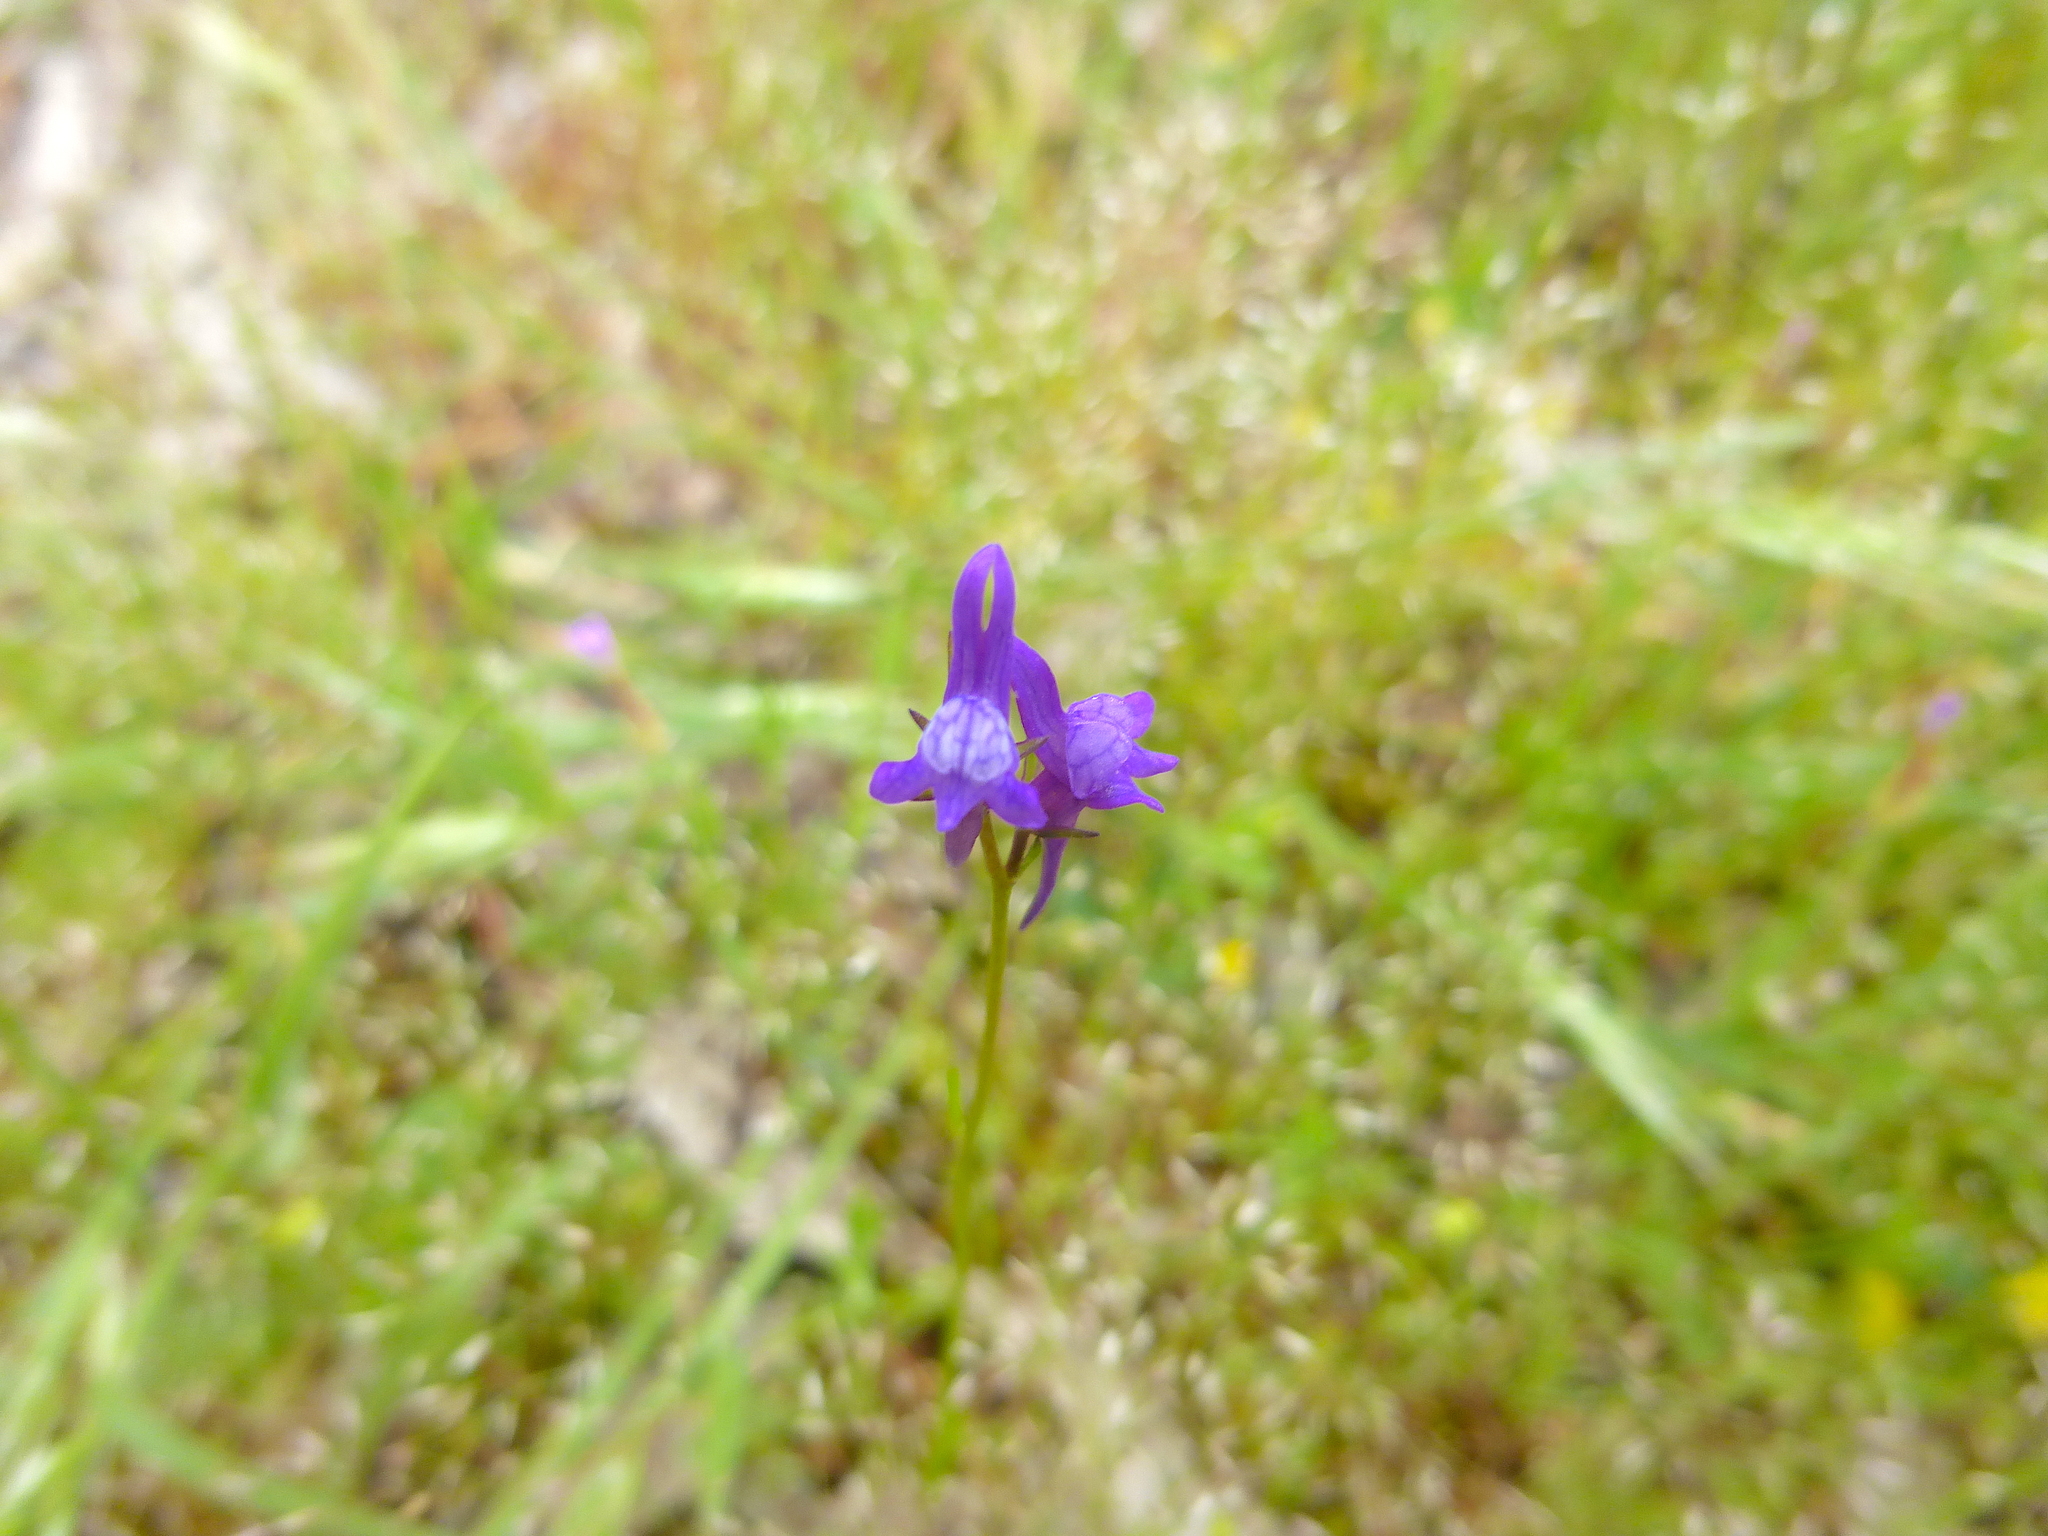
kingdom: Plantae
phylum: Tracheophyta
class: Magnoliopsida
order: Lamiales
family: Plantaginaceae
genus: Linaria
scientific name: Linaria pelisseriana
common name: Jersey toadflax
